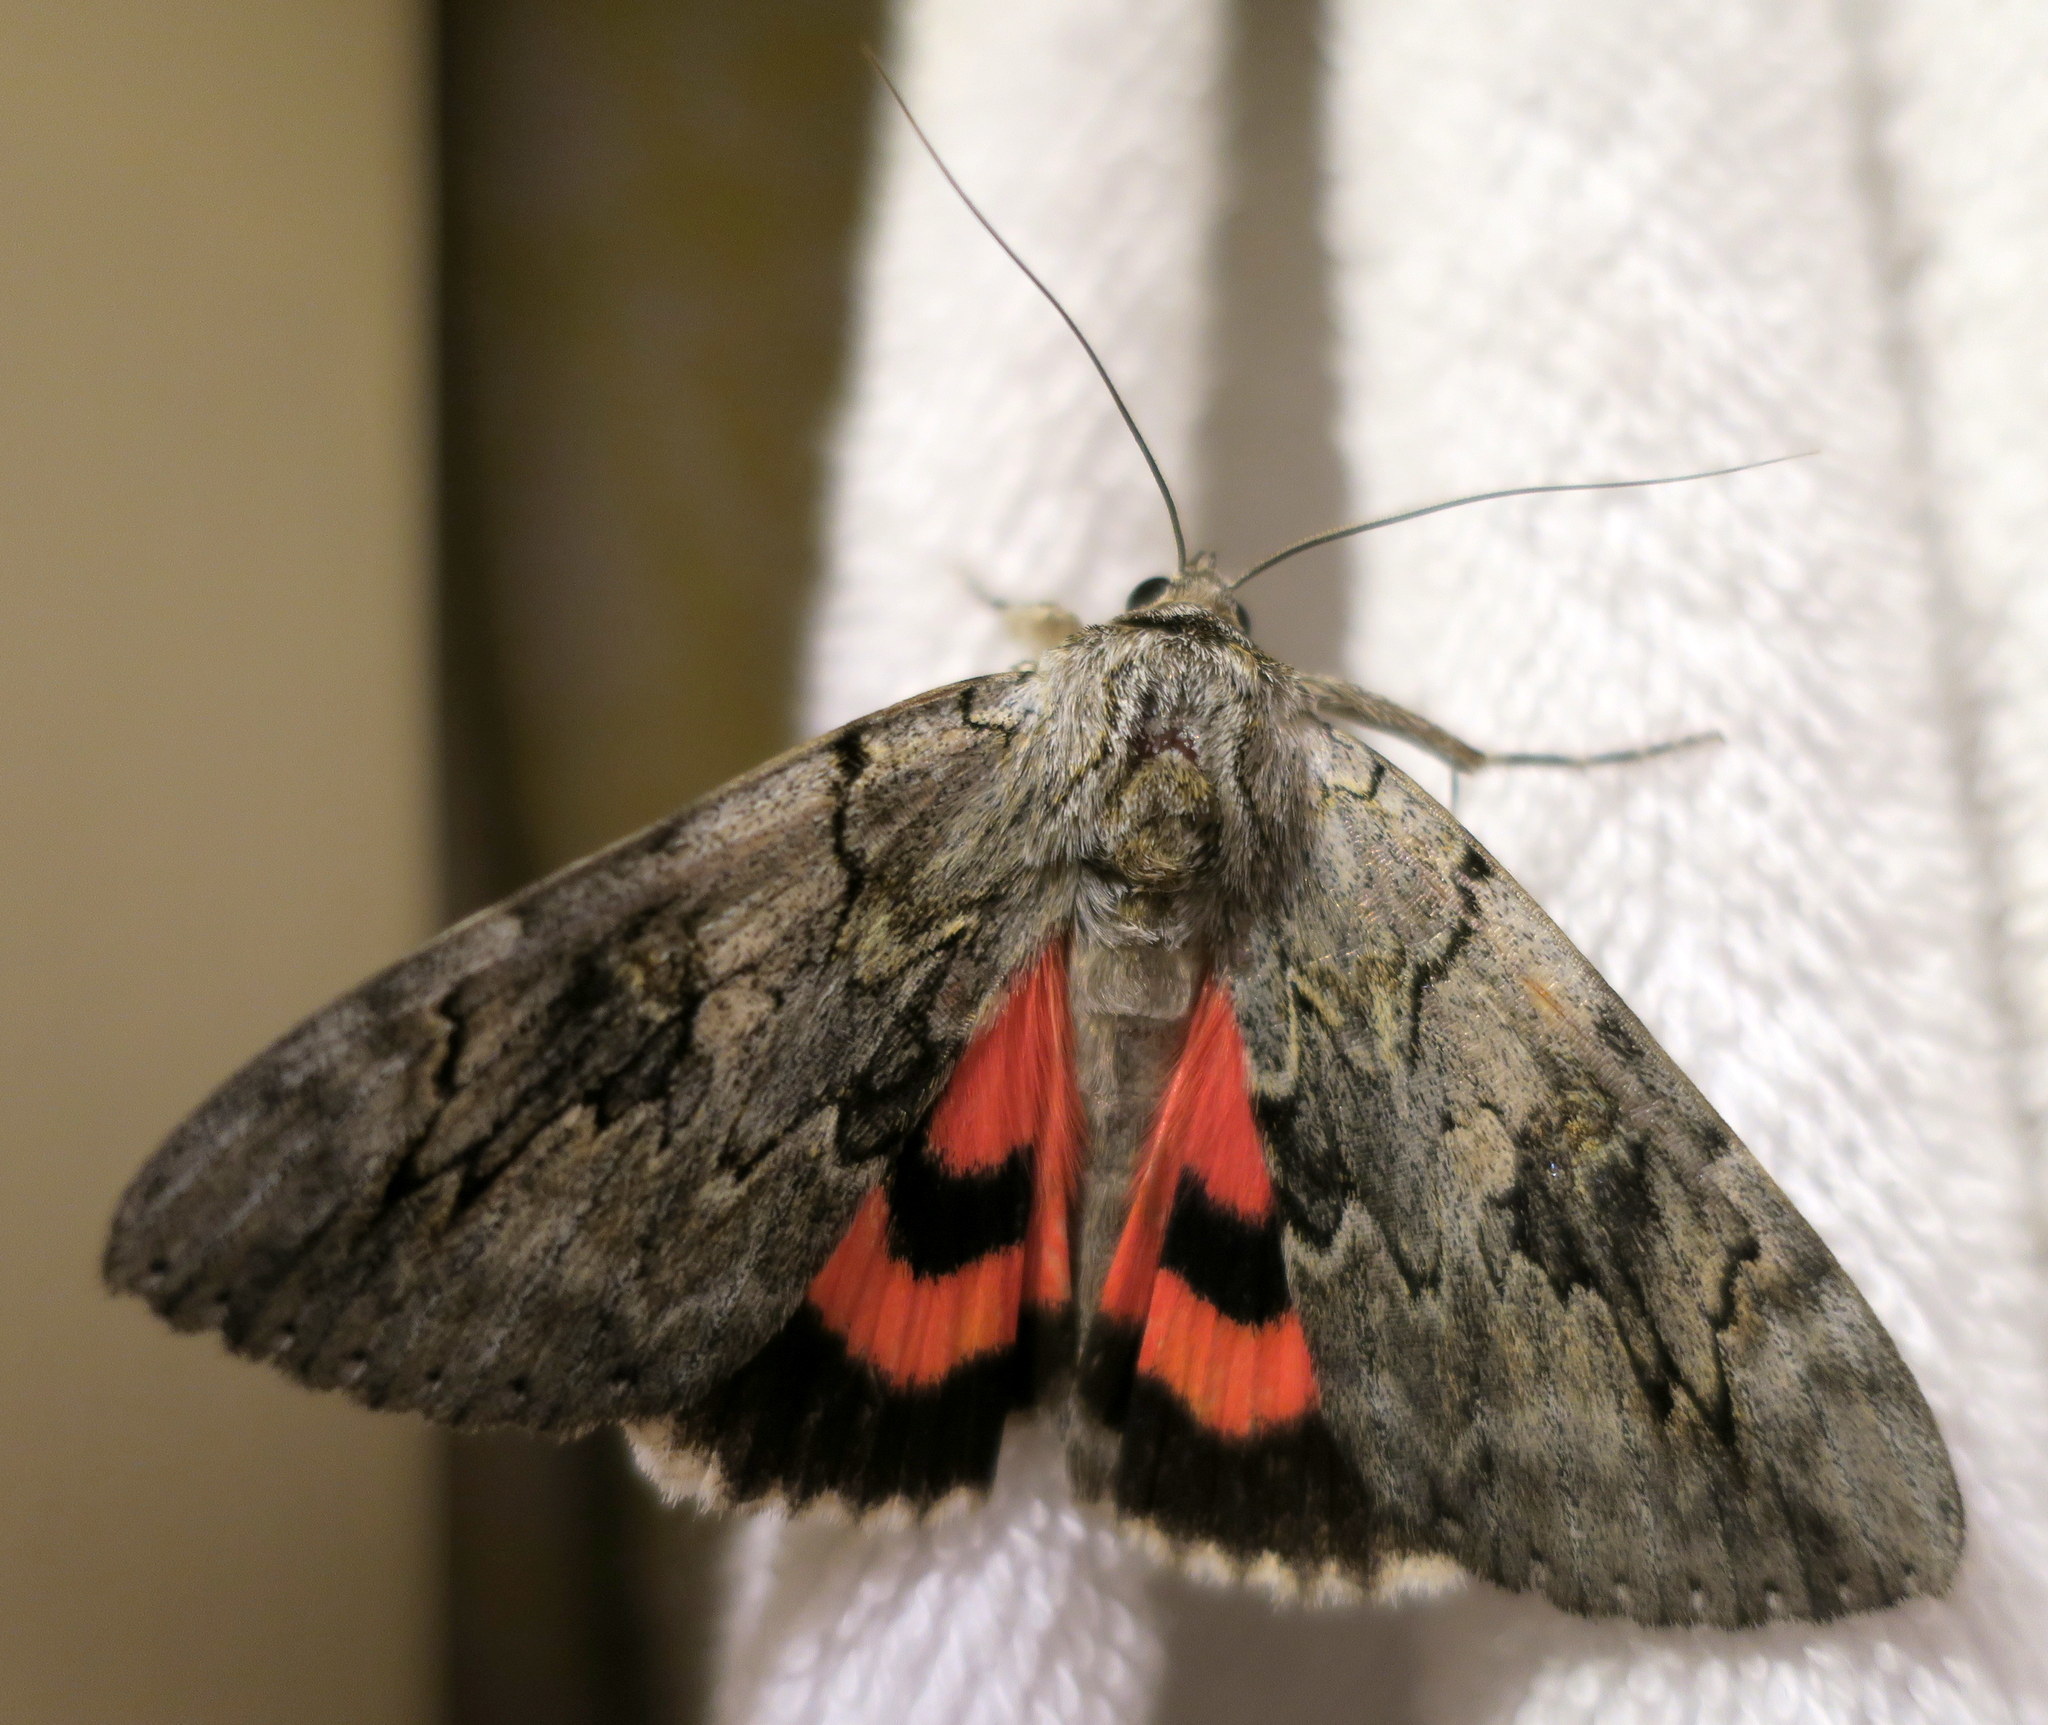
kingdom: Animalia
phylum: Arthropoda
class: Insecta
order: Lepidoptera
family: Erebidae
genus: Catocala
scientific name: Catocala electa
